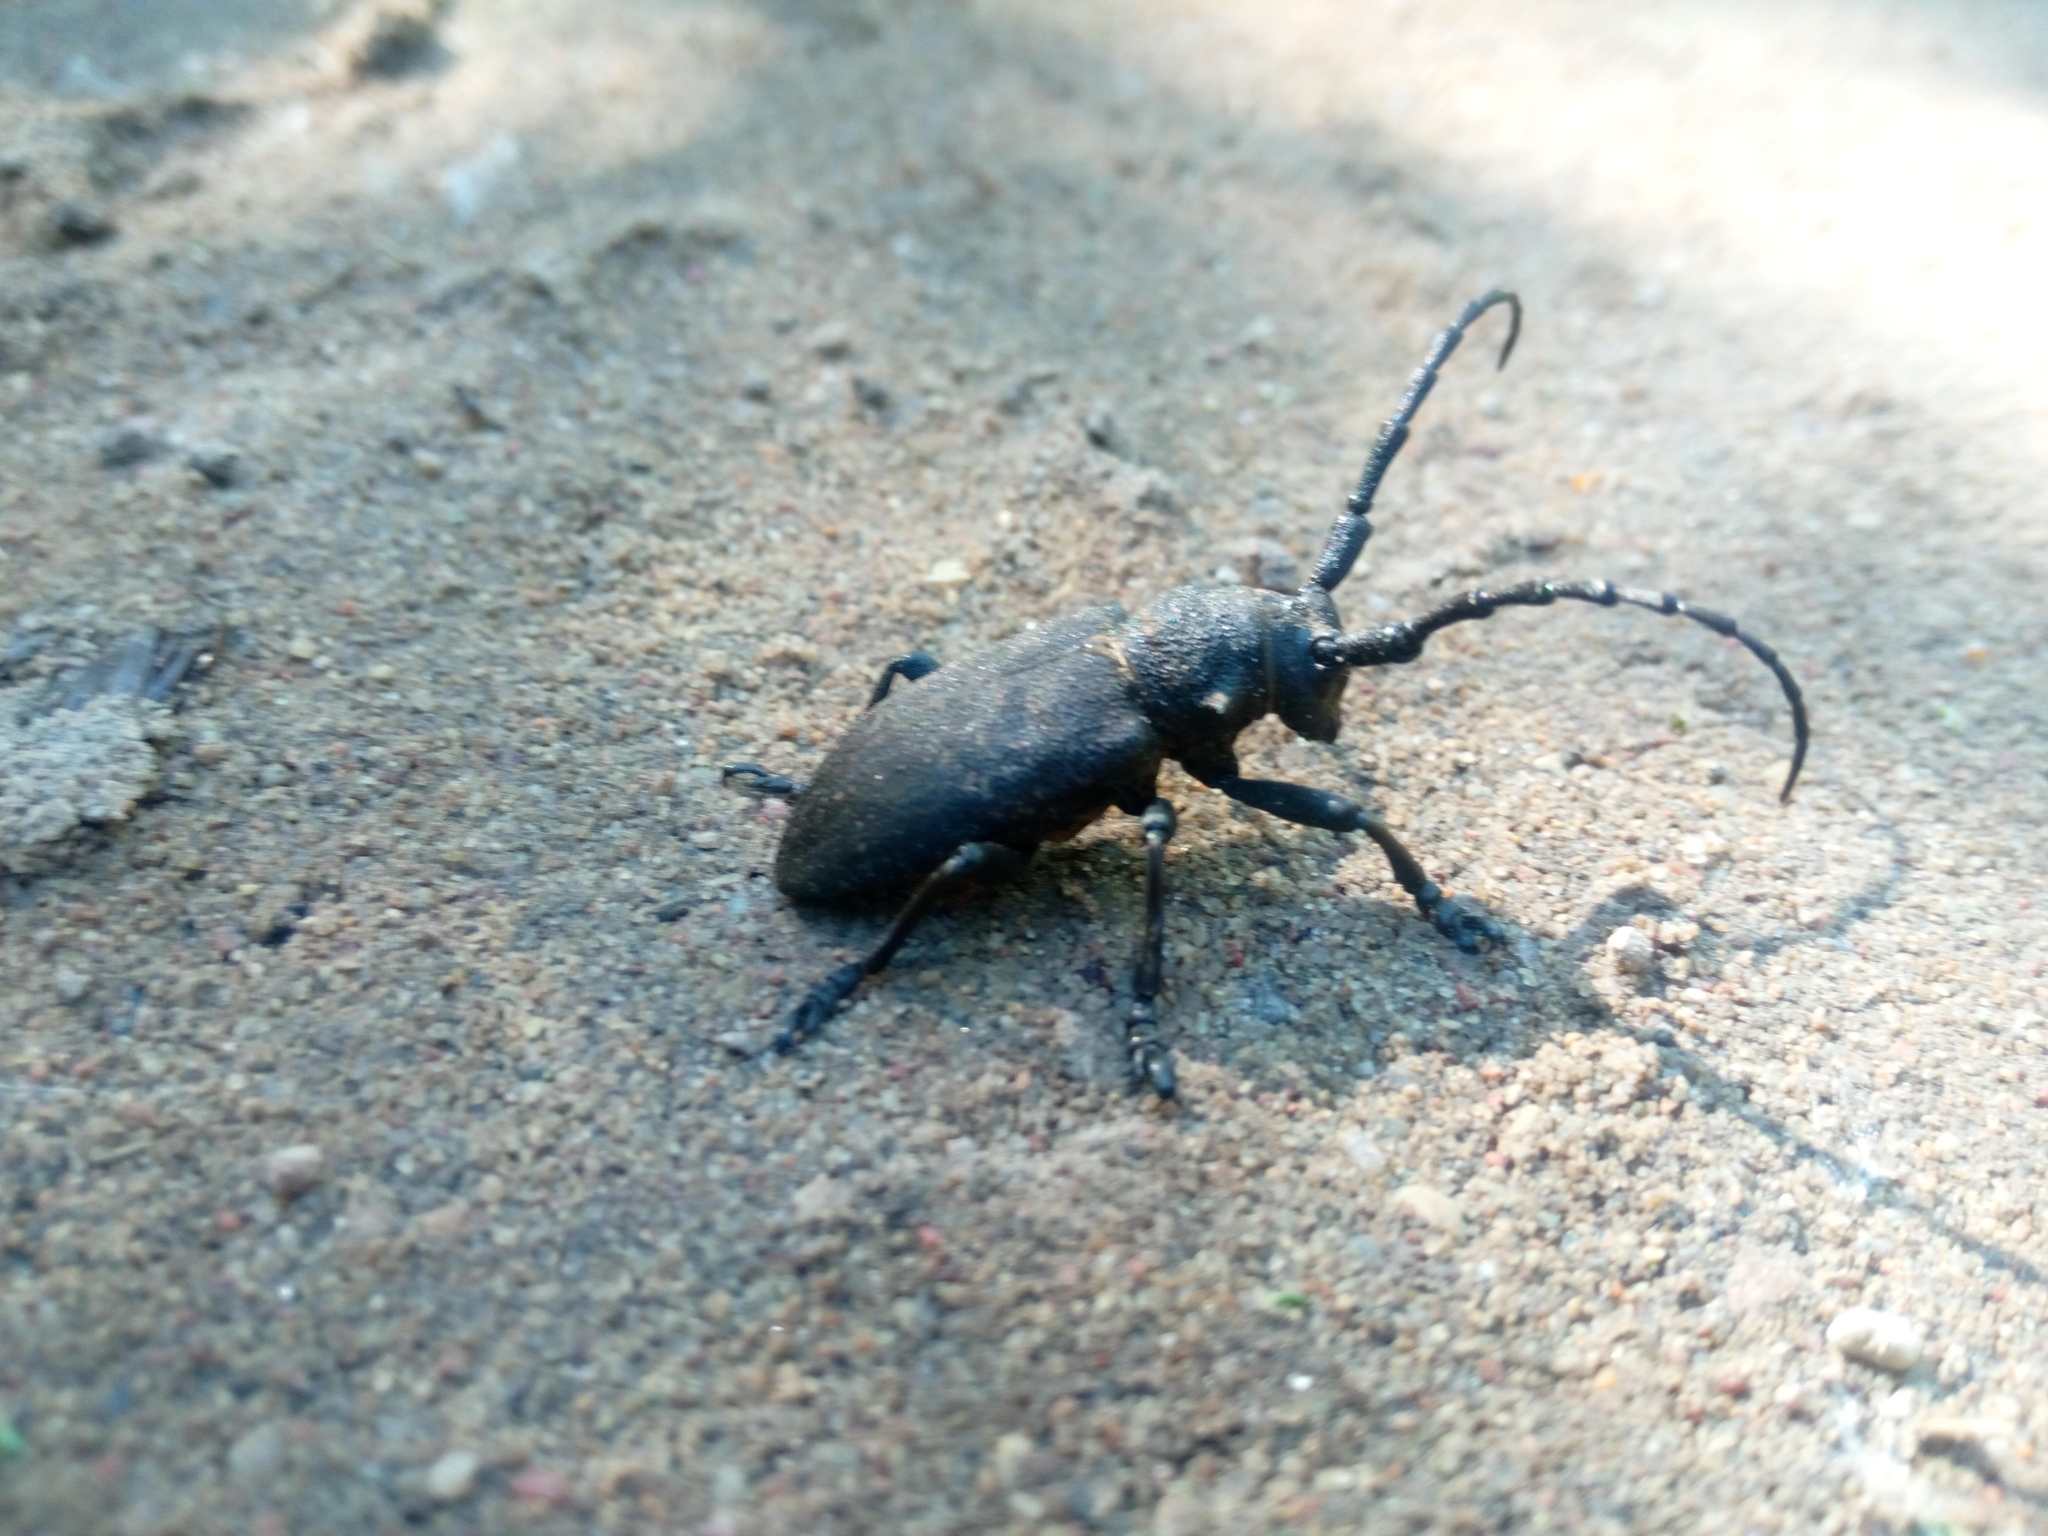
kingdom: Animalia
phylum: Arthropoda
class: Insecta
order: Coleoptera
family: Cerambycidae
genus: Lamia
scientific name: Lamia textor
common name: Weaver beetle
